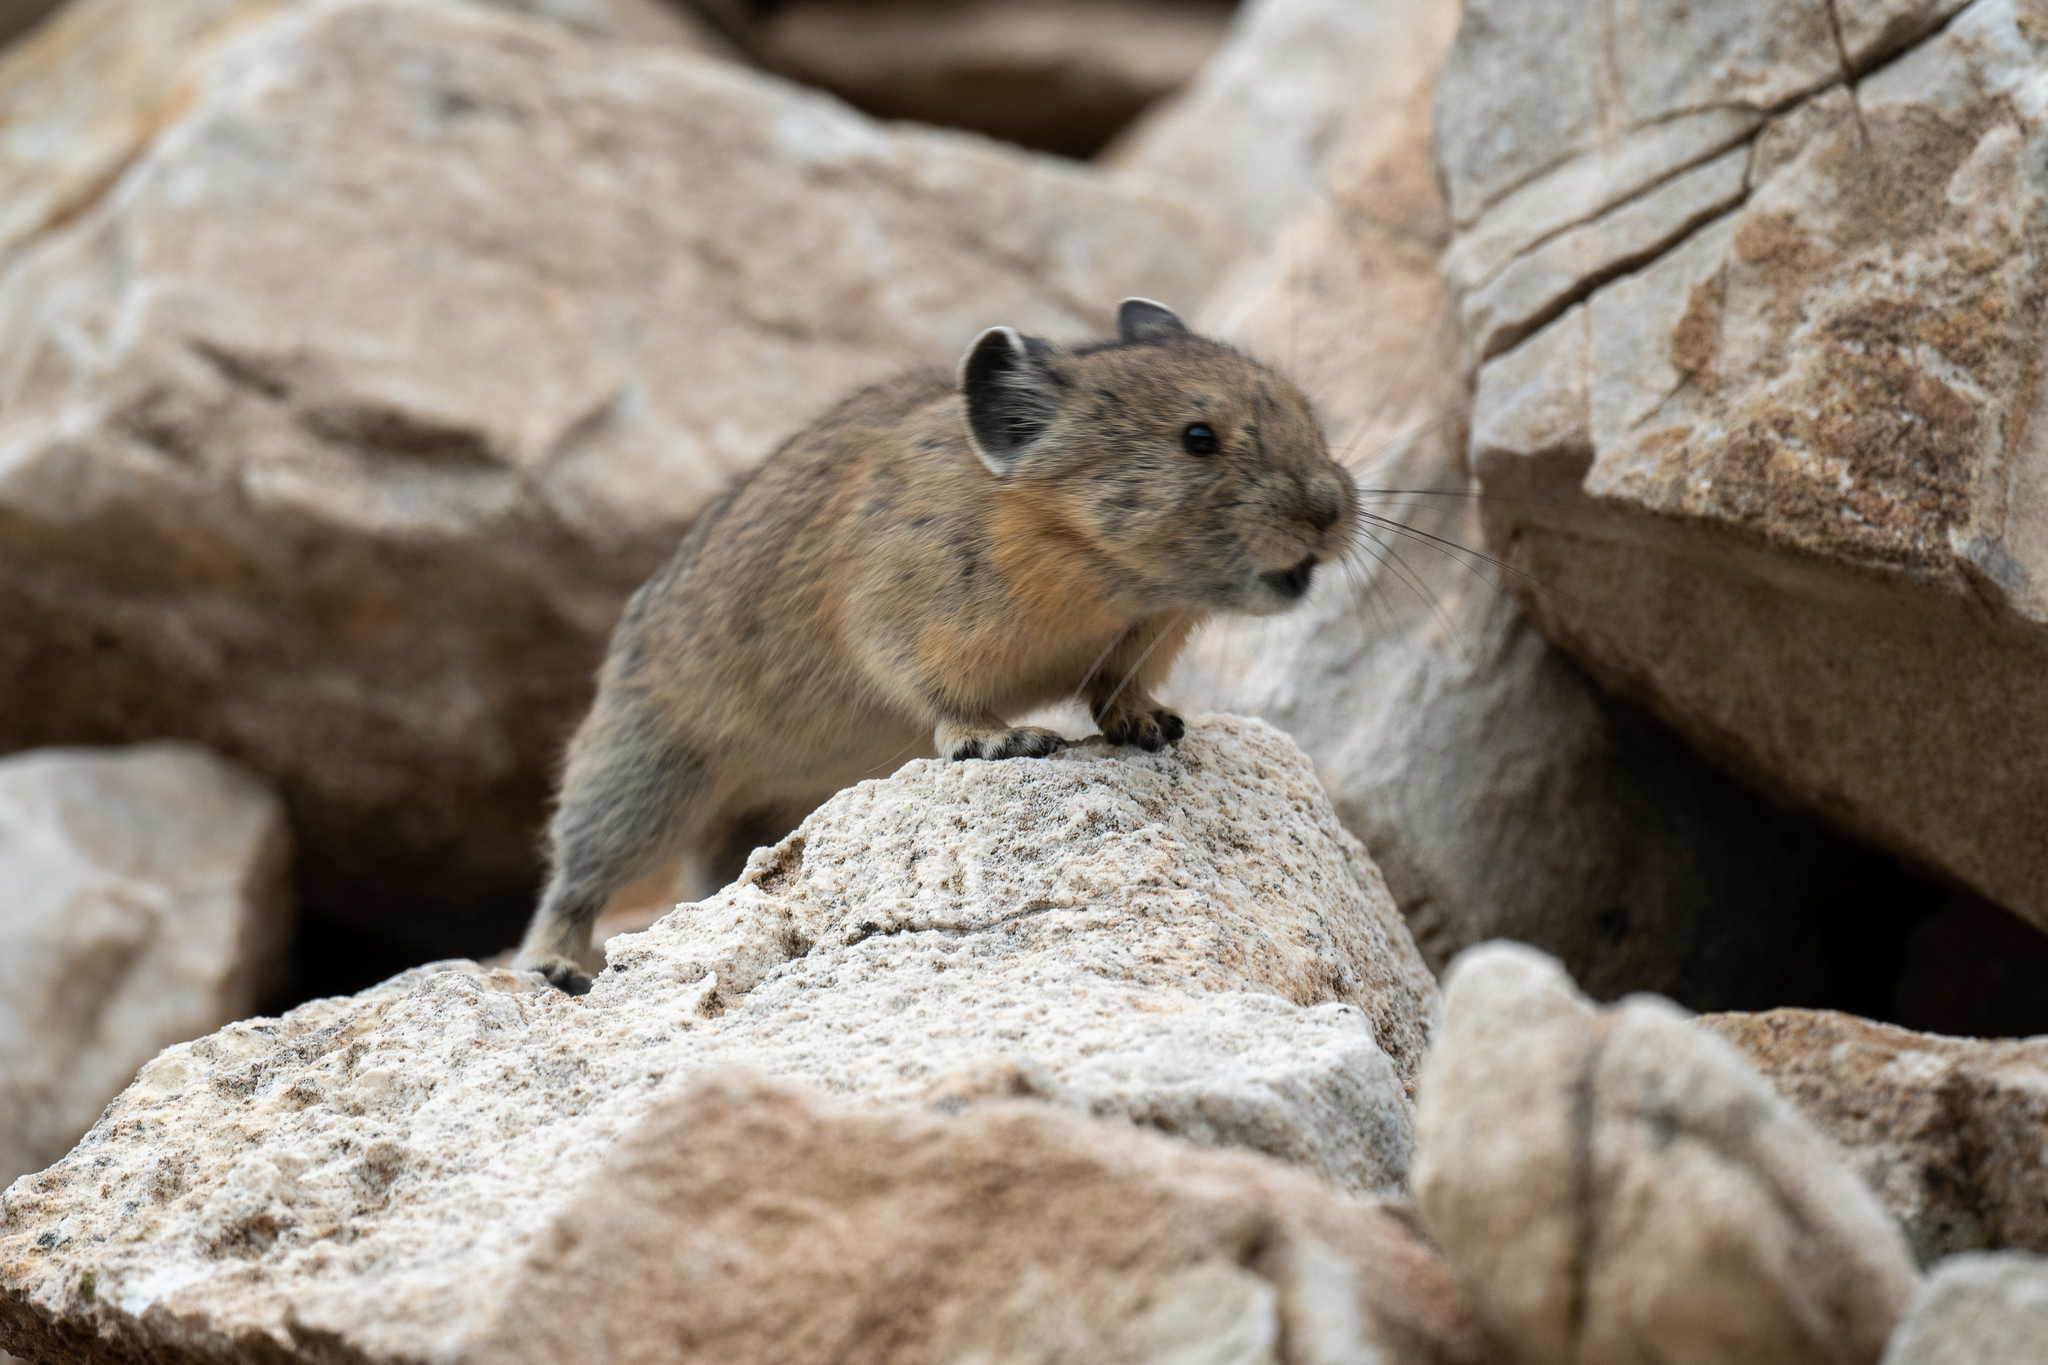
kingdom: Animalia
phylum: Chordata
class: Mammalia
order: Lagomorpha
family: Ochotonidae
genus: Ochotona
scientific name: Ochotona princeps
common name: American pika
